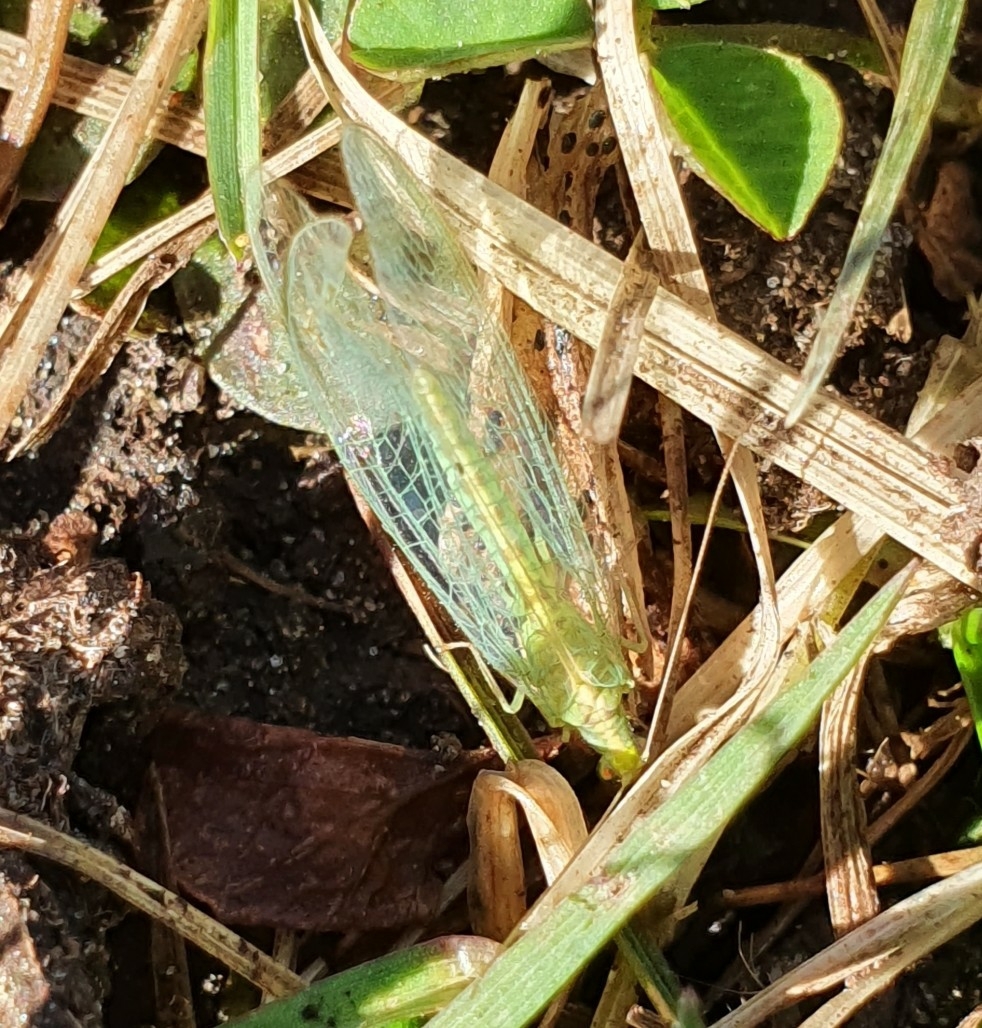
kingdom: Animalia
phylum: Arthropoda
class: Insecta
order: Neuroptera
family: Chrysopidae
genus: Chrysoperla
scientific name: Chrysoperla
